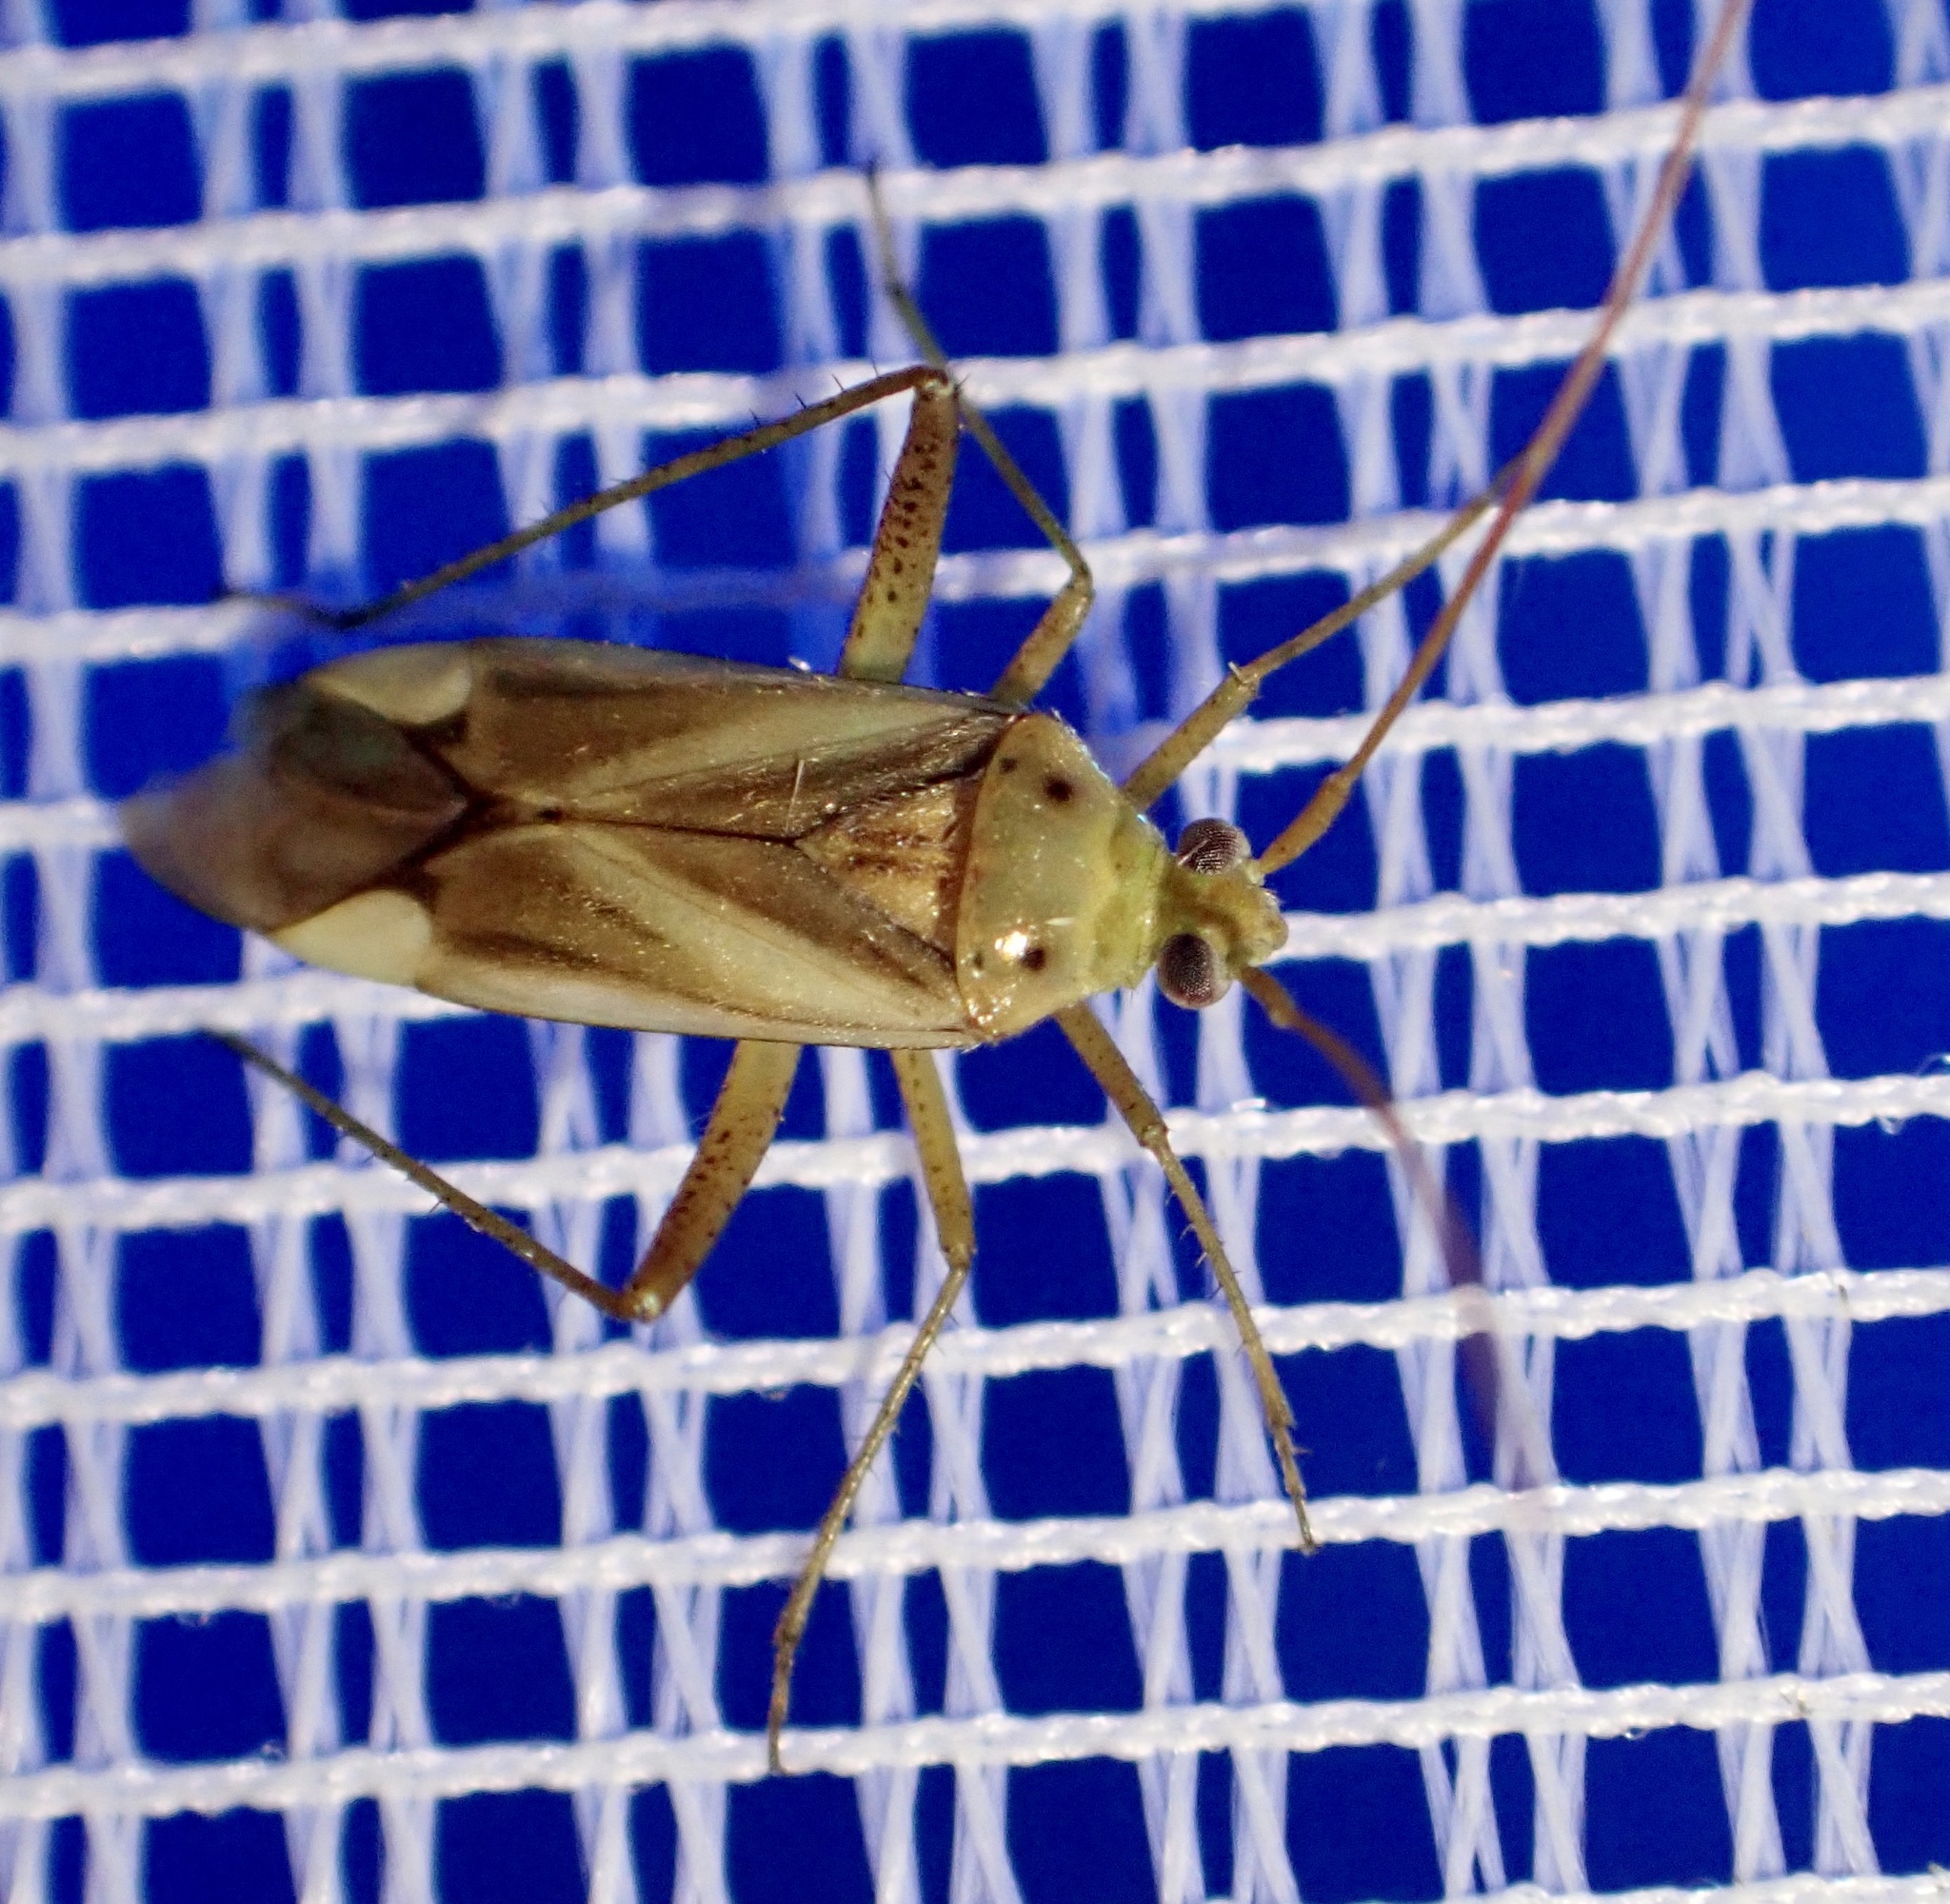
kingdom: Animalia
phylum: Arthropoda
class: Insecta
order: Hemiptera
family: Miridae
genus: Adelphocoris
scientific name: Adelphocoris lineolatus
